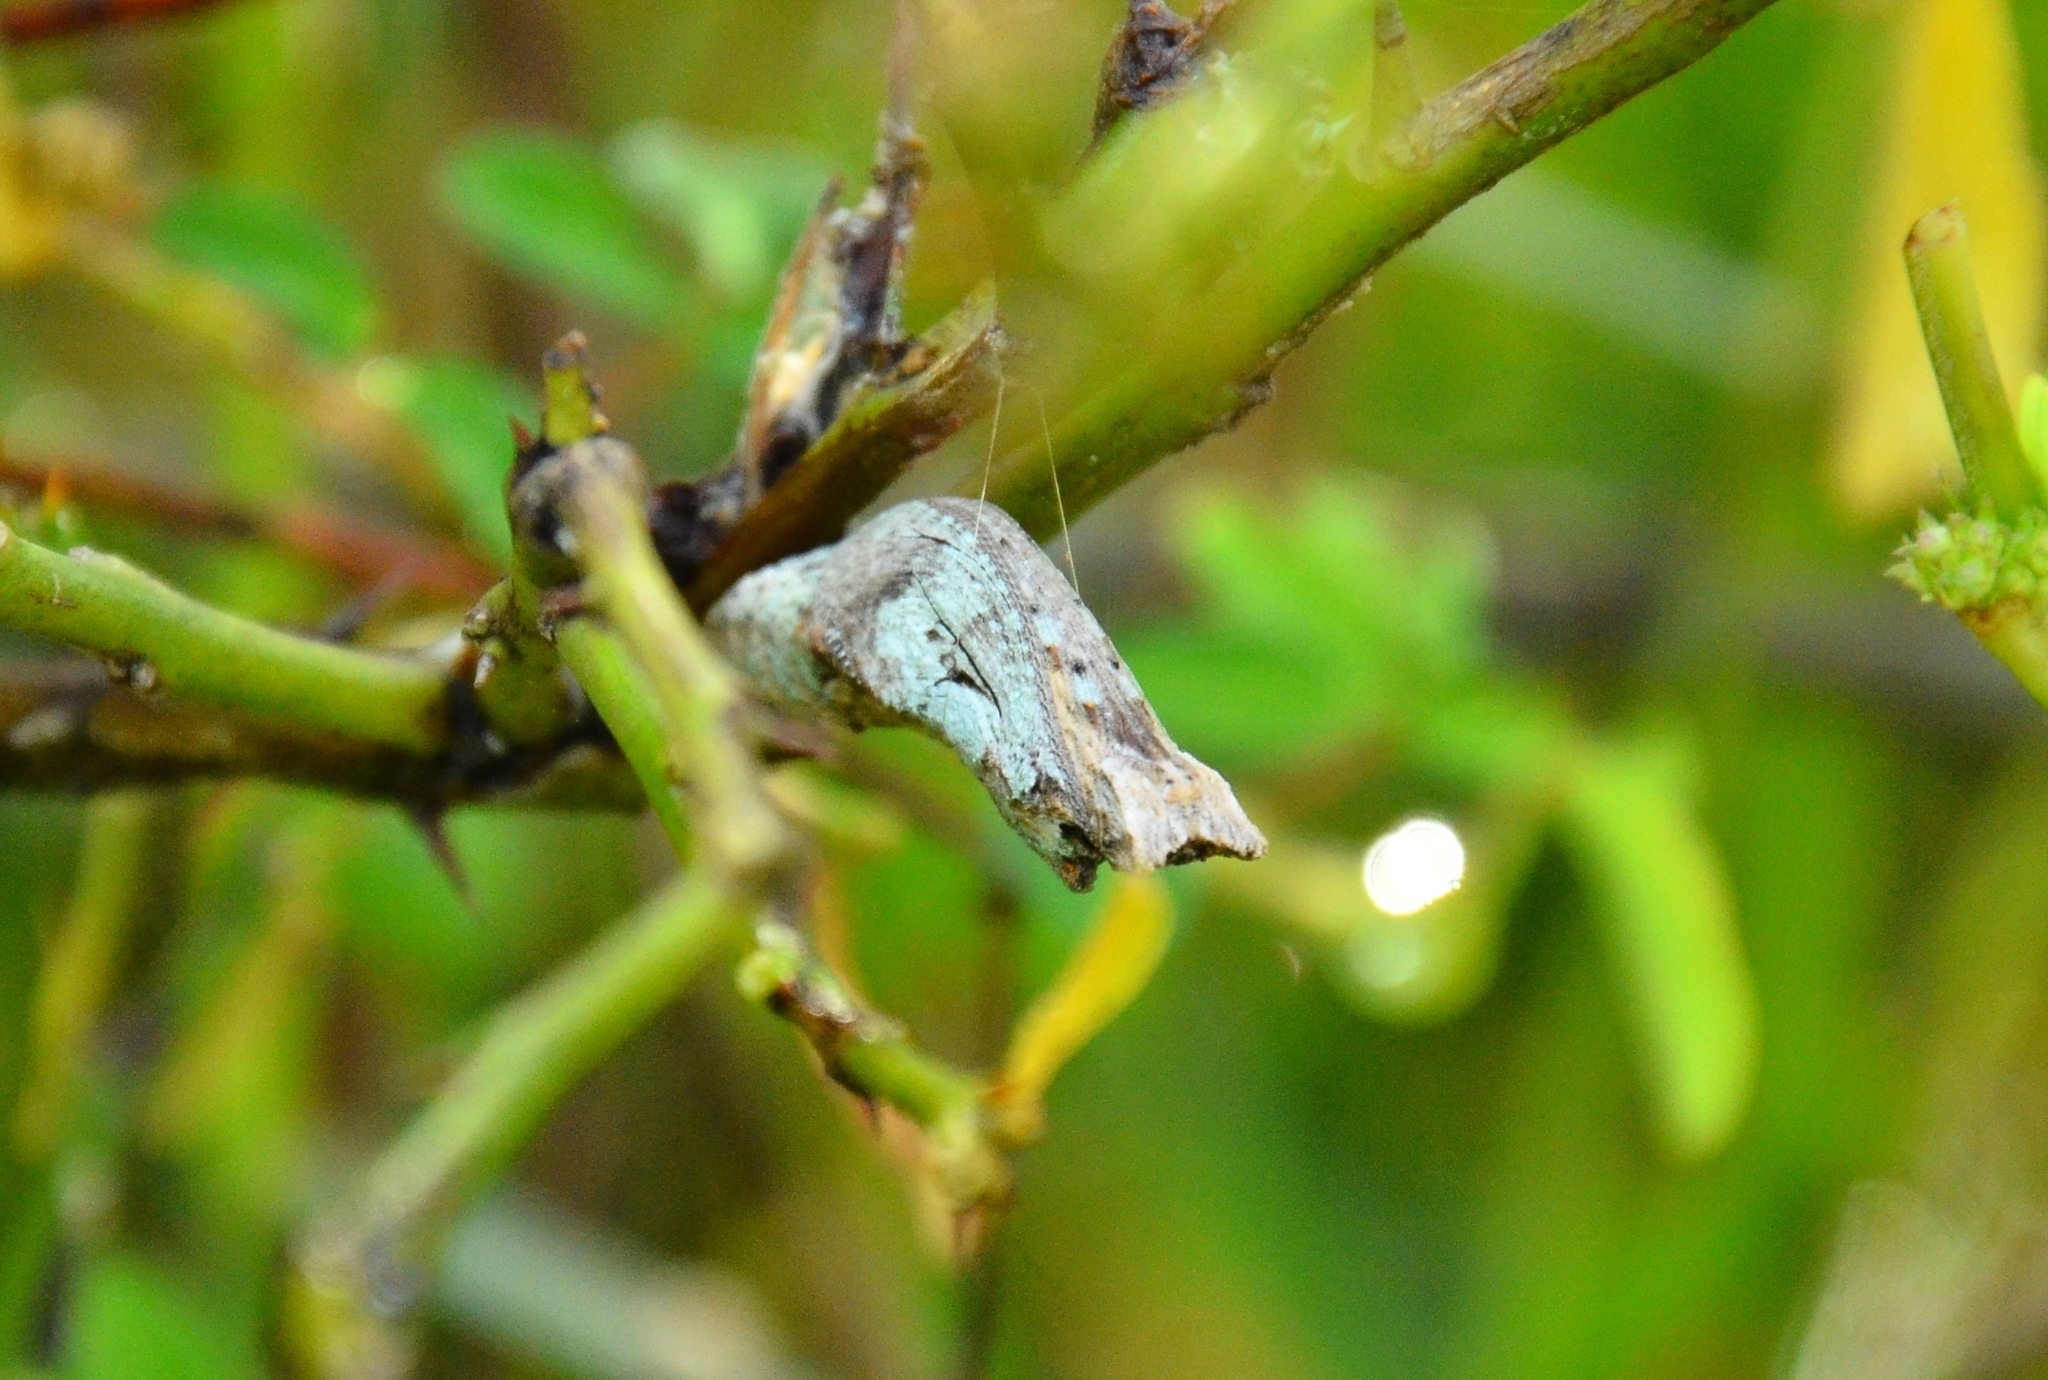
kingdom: Animalia
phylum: Arthropoda
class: Insecta
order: Lepidoptera
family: Papilionidae
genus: Papilio
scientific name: Papilio demoleus
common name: Lime butterfly
